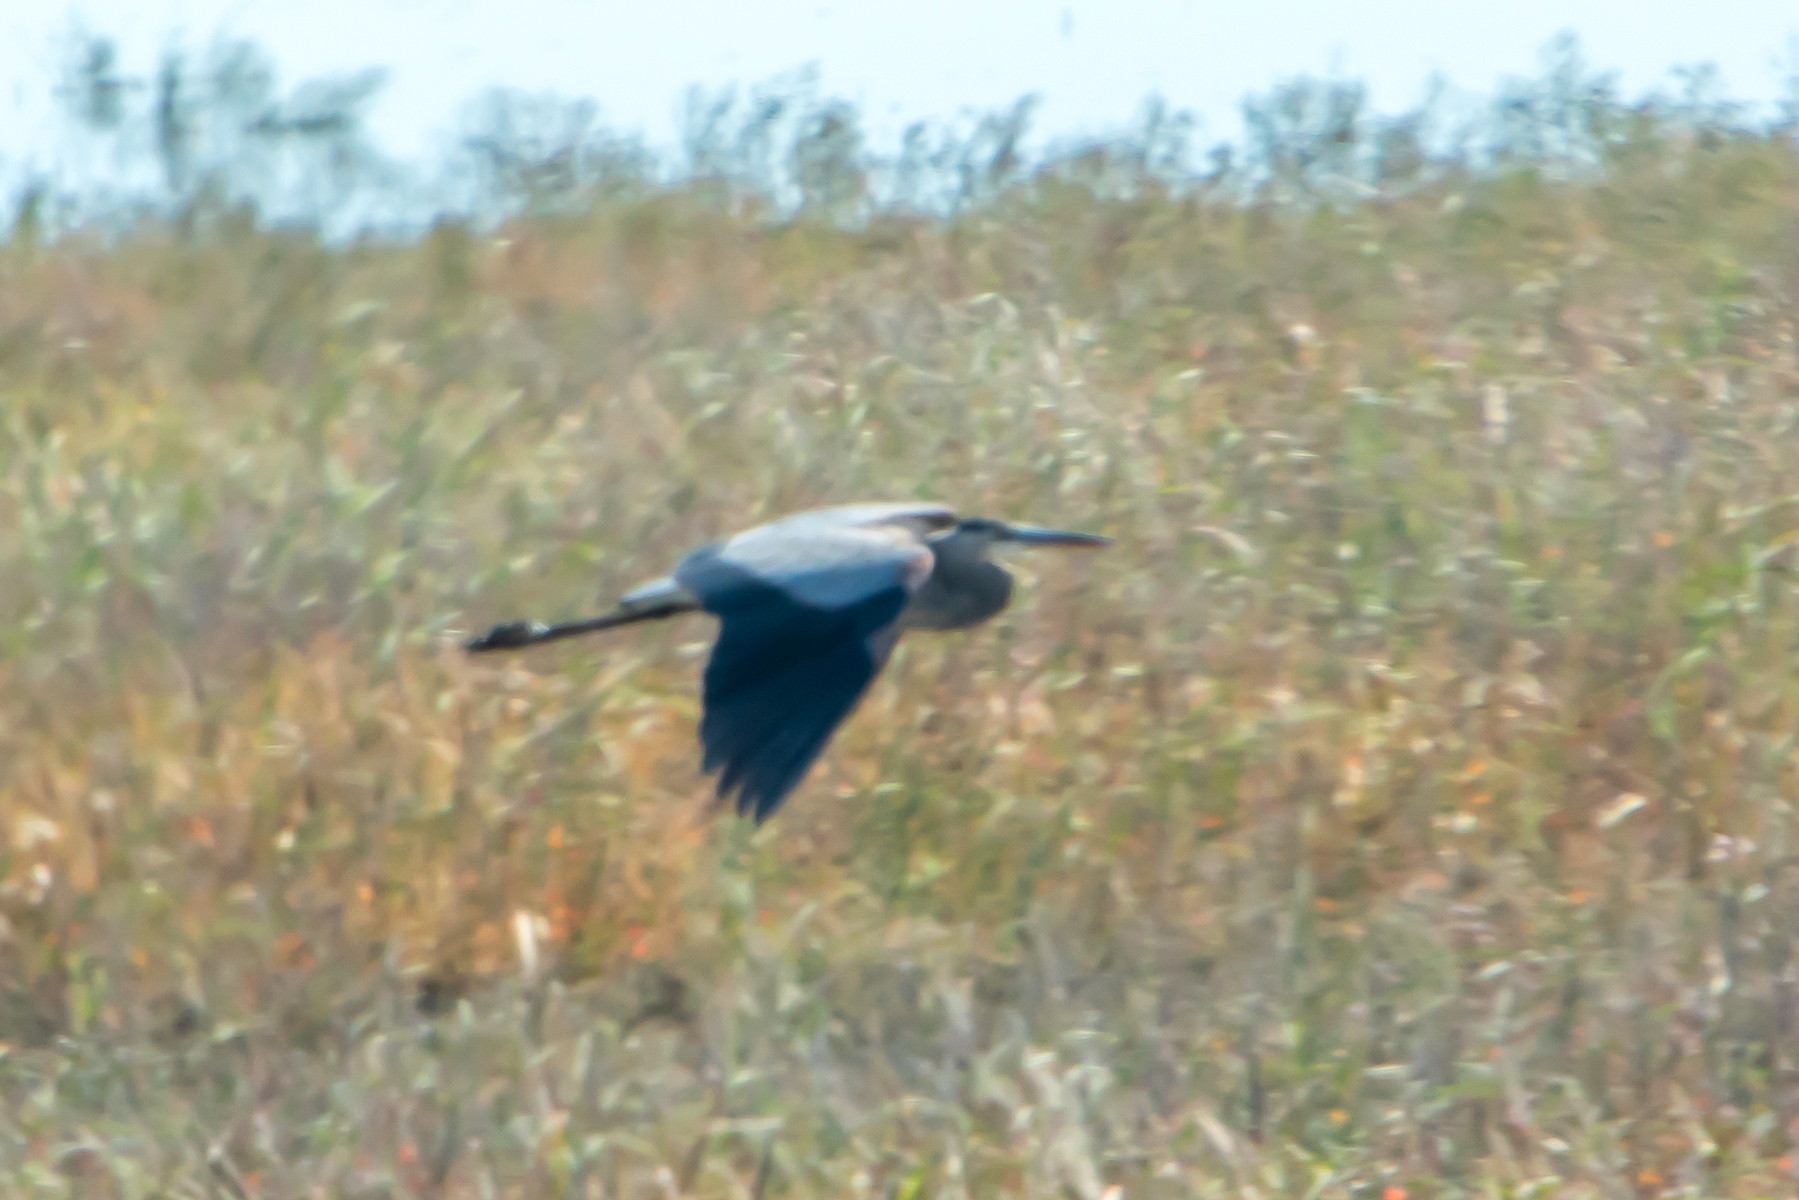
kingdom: Animalia
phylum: Chordata
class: Aves
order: Pelecaniformes
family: Ardeidae
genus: Ardea
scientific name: Ardea herodias
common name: Great blue heron
